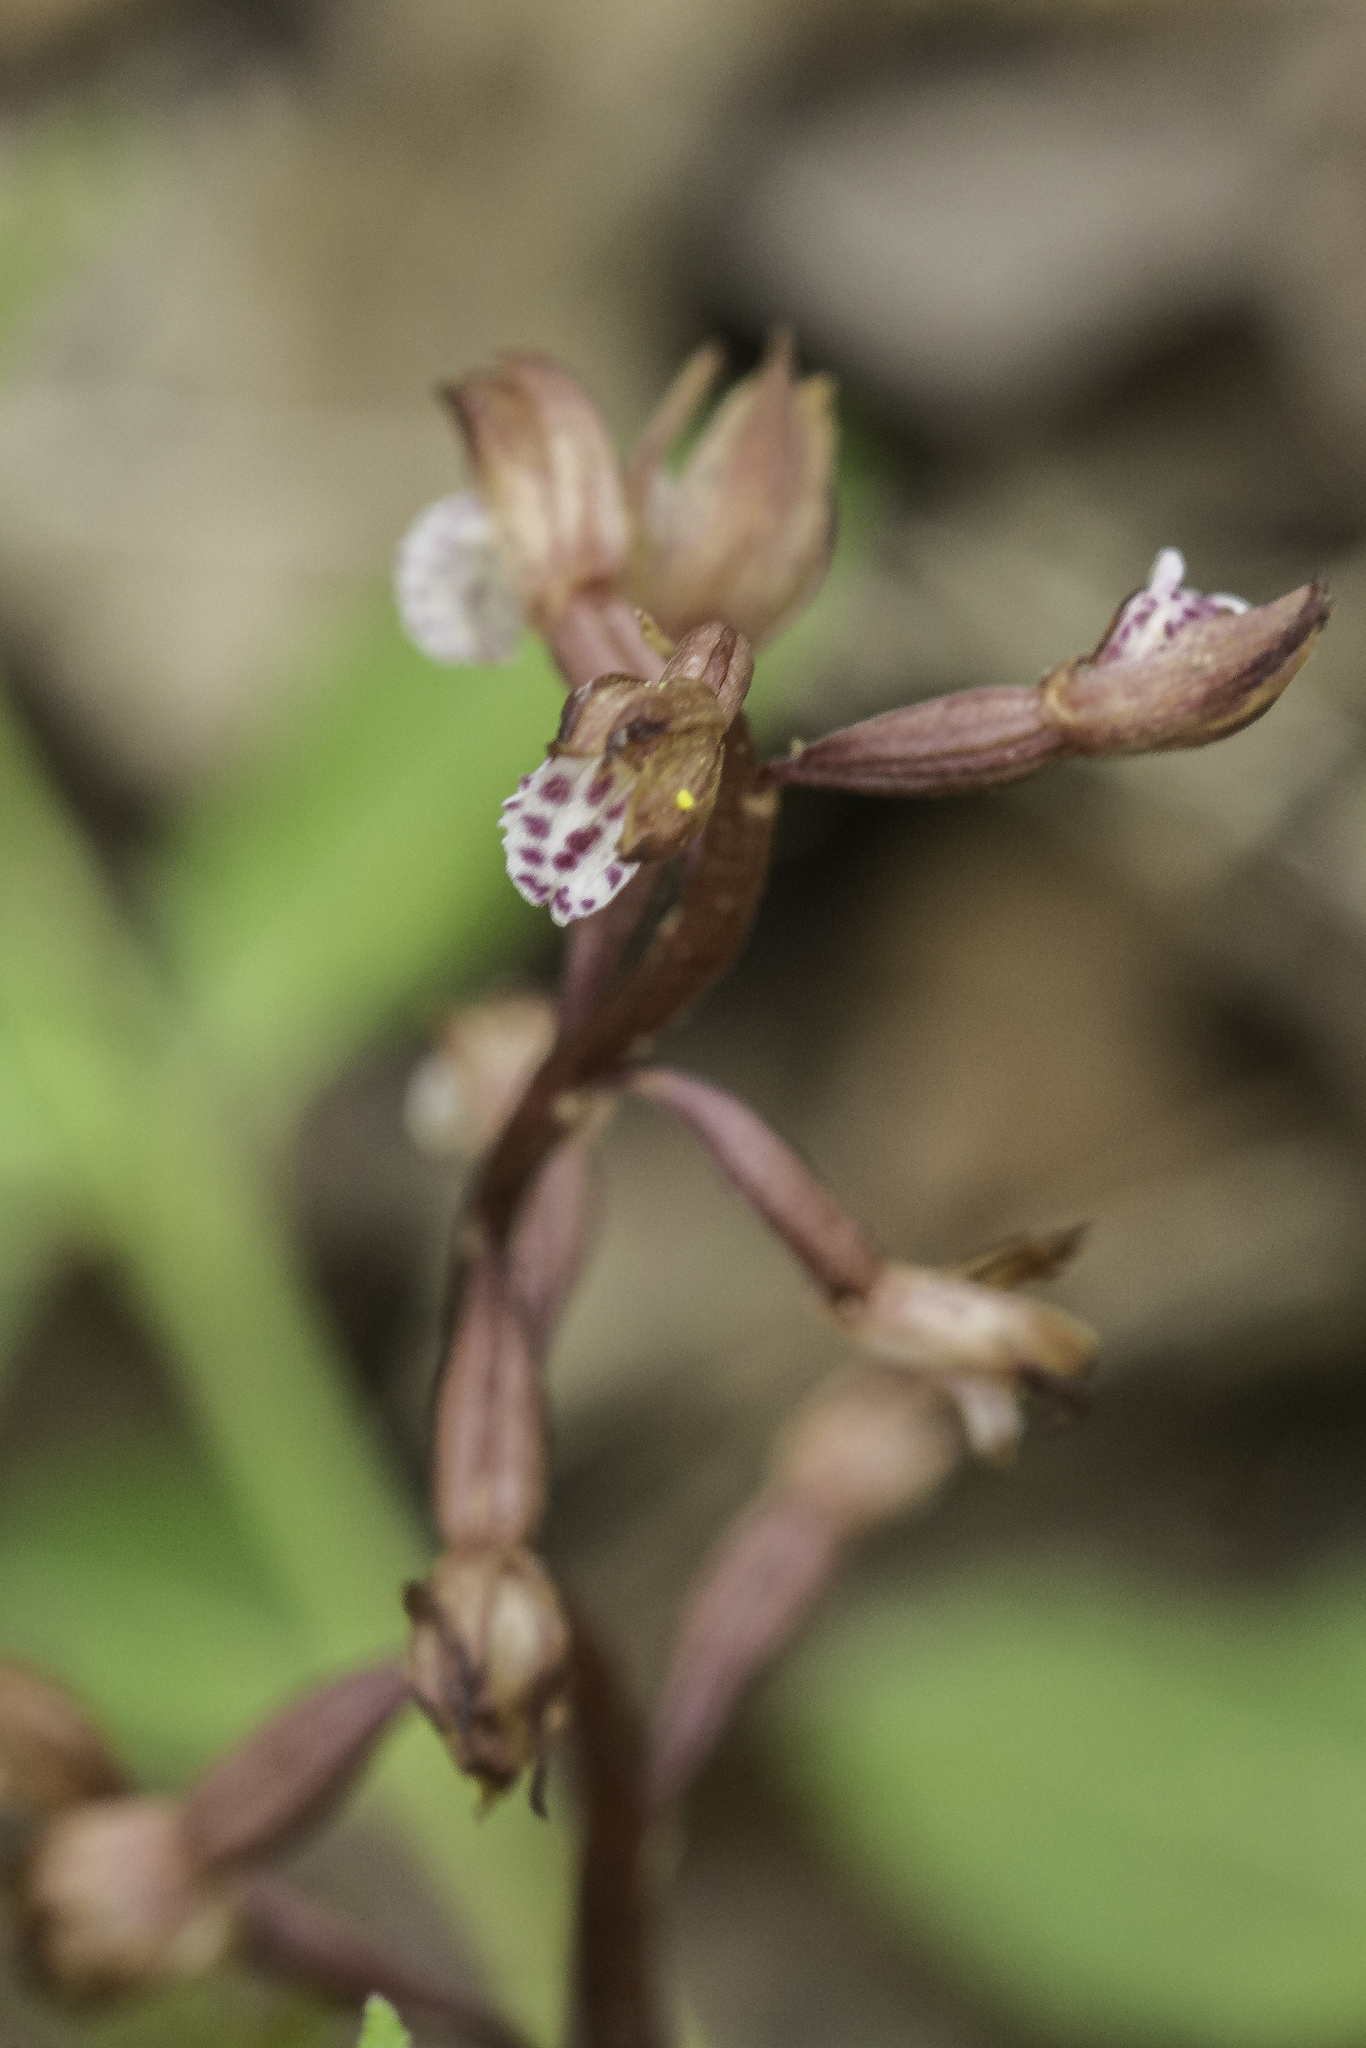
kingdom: Plantae
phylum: Tracheophyta
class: Liliopsida
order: Asparagales
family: Orchidaceae
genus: Corallorhiza
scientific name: Corallorhiza wisteriana
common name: Spring coralroot
